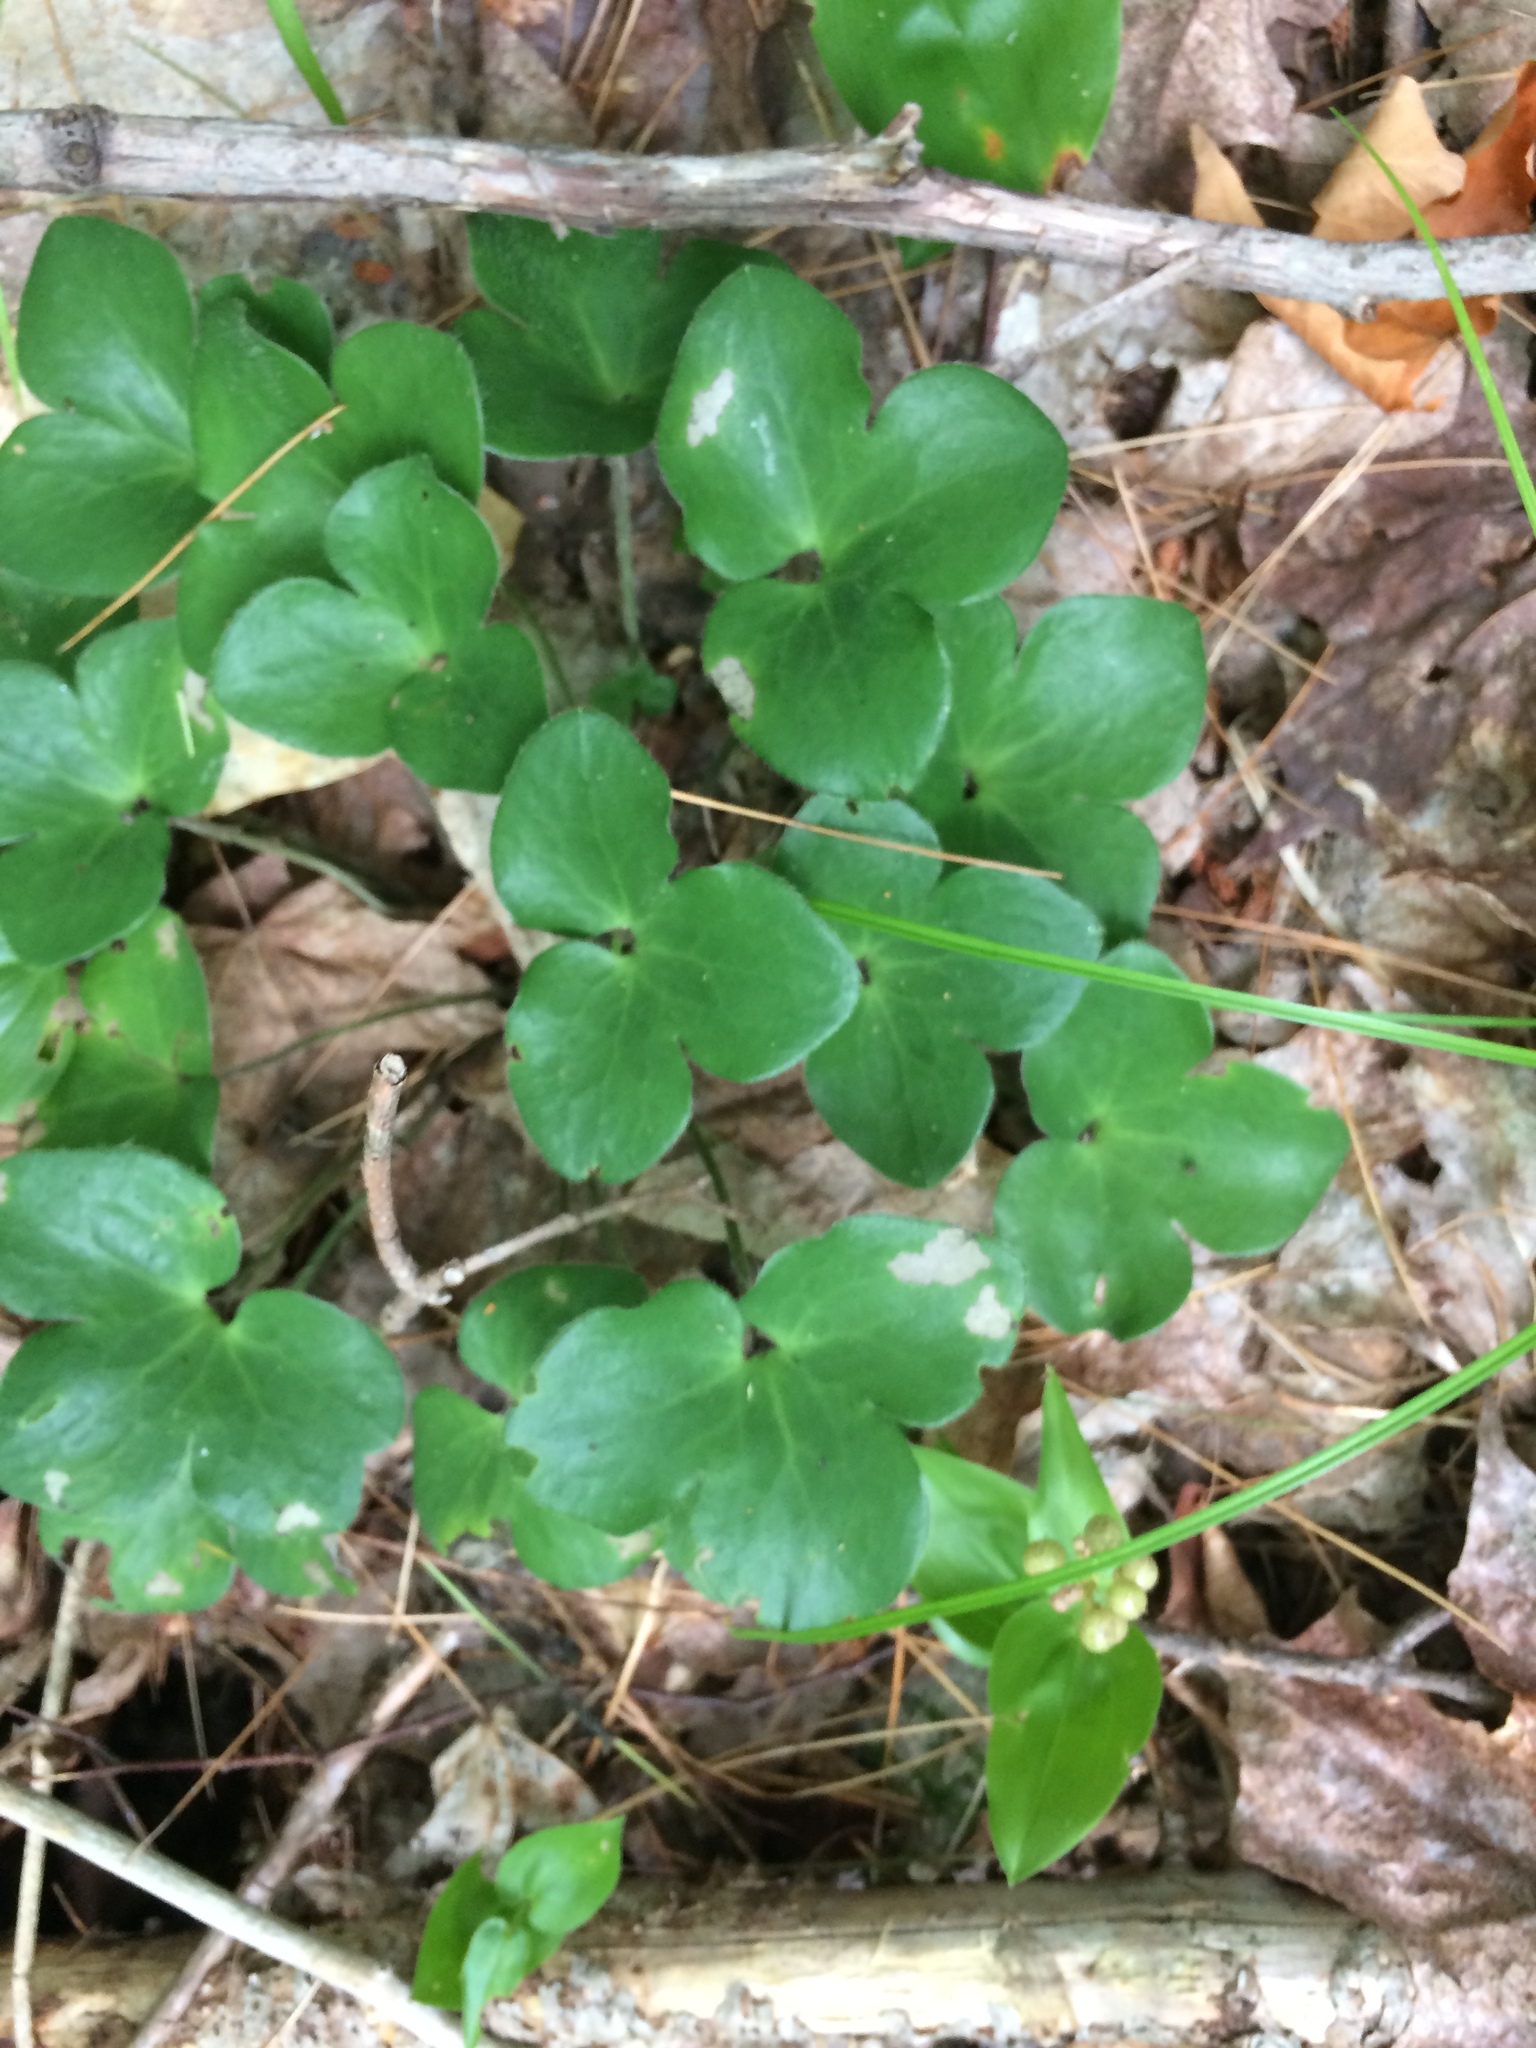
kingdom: Plantae
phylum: Tracheophyta
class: Magnoliopsida
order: Ranunculales
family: Ranunculaceae
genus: Hepatica
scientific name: Hepatica americana
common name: American hepatica
